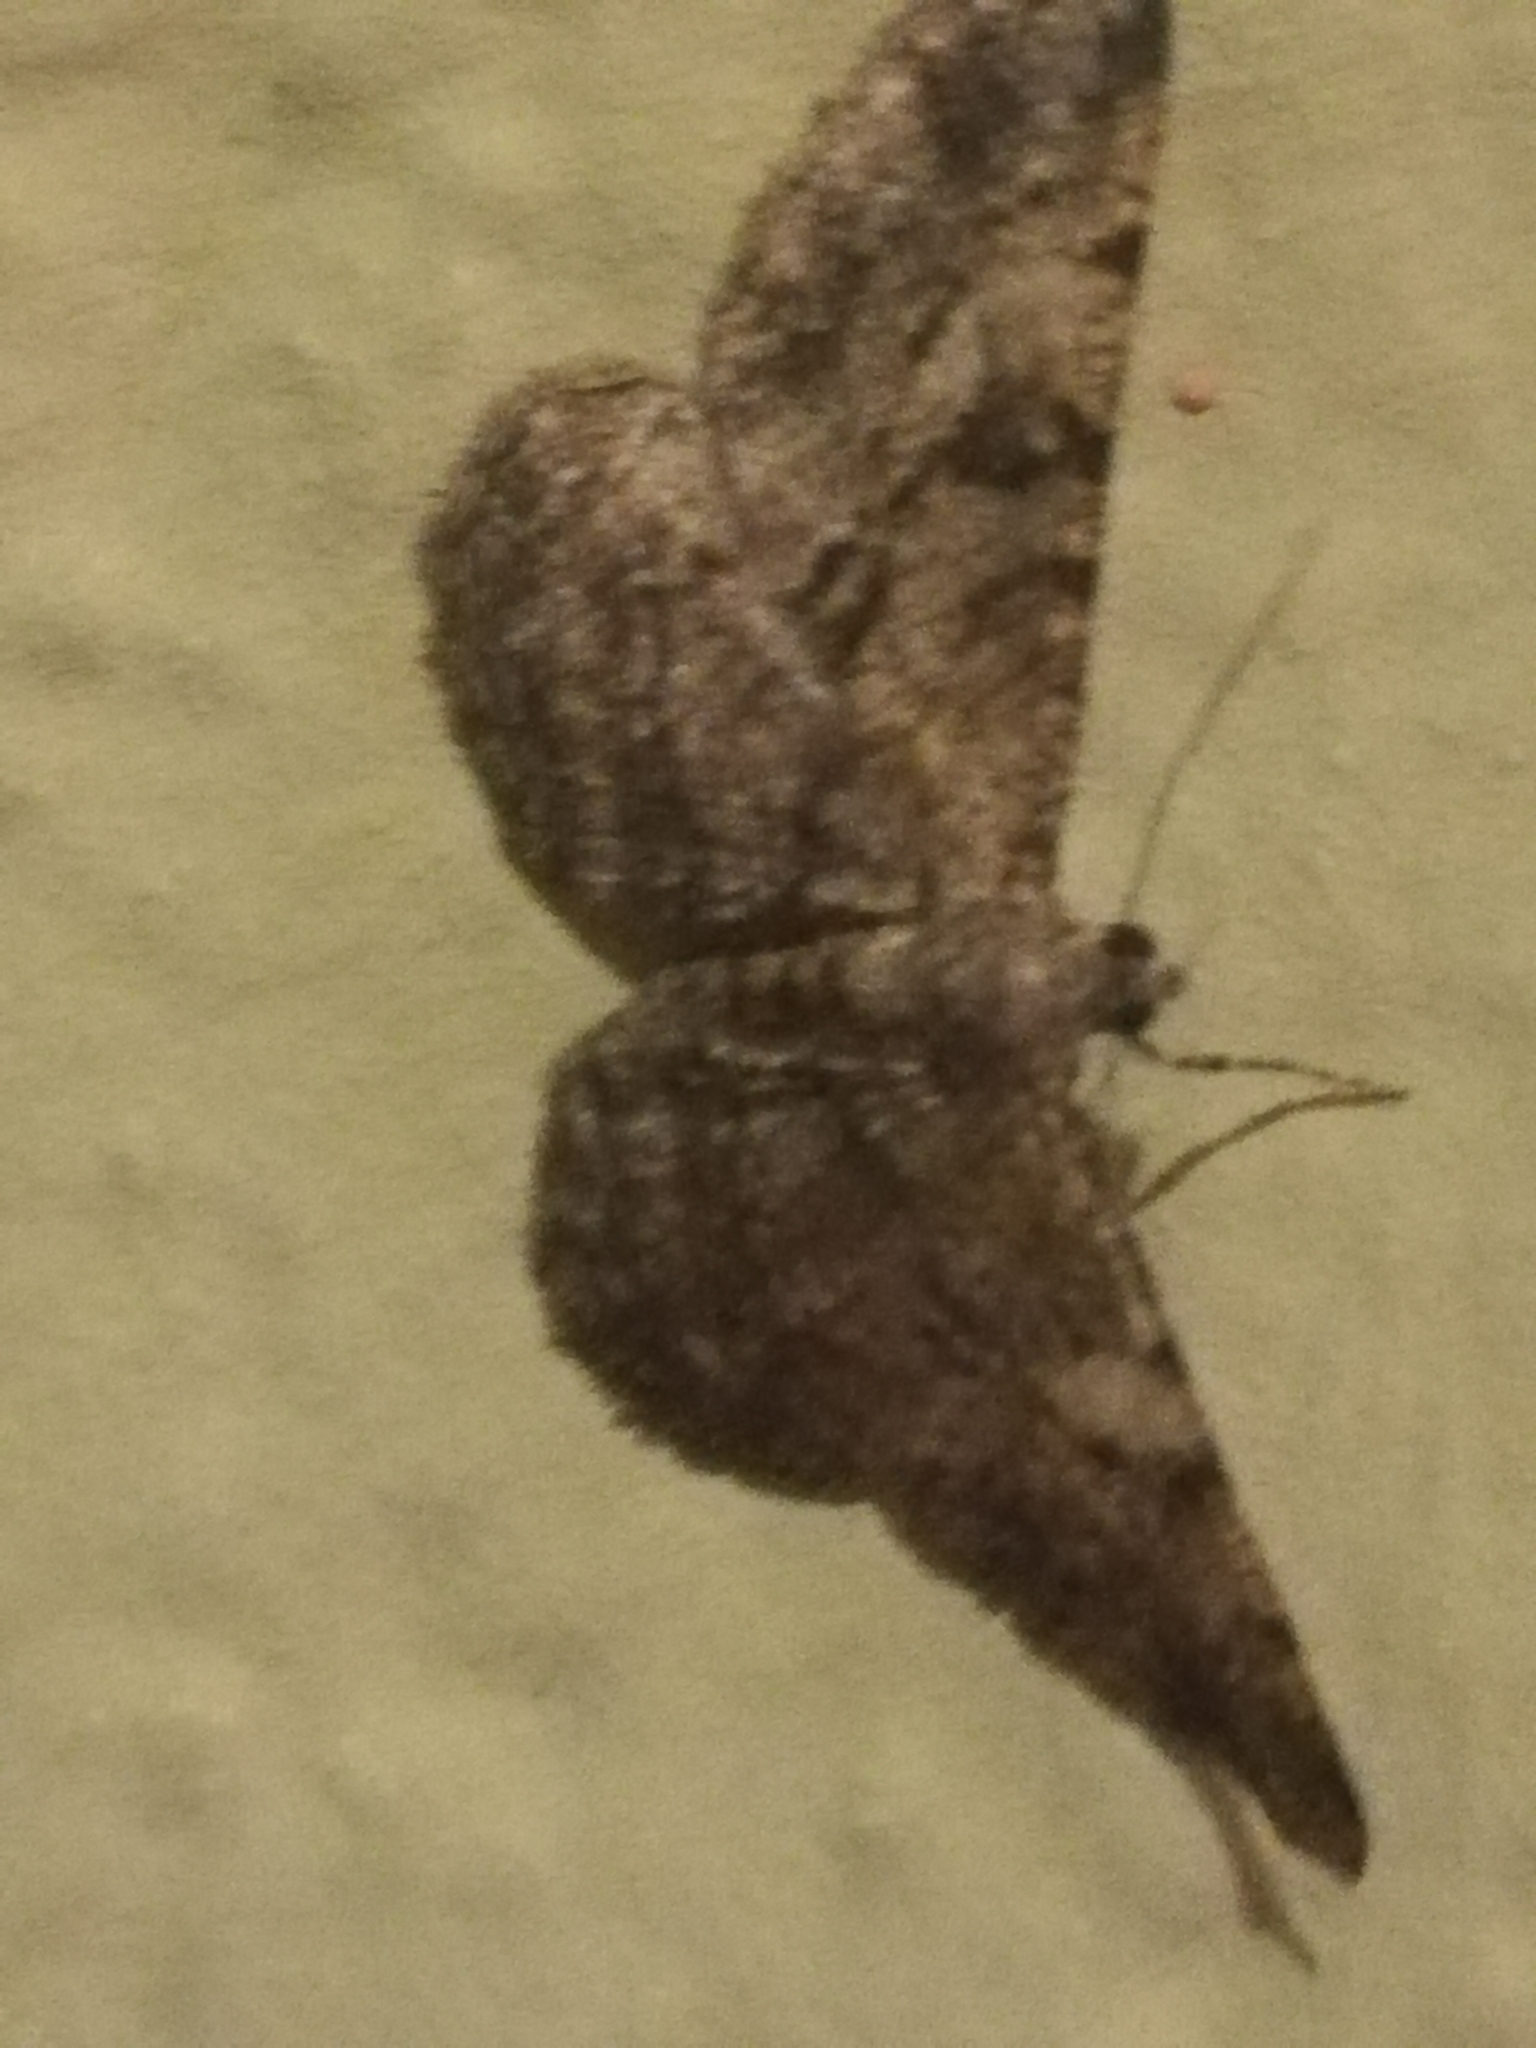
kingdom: Animalia
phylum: Arthropoda
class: Insecta
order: Lepidoptera
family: Geometridae
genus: Peribatodes
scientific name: Peribatodes rhomboidaria
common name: Willow beauty
